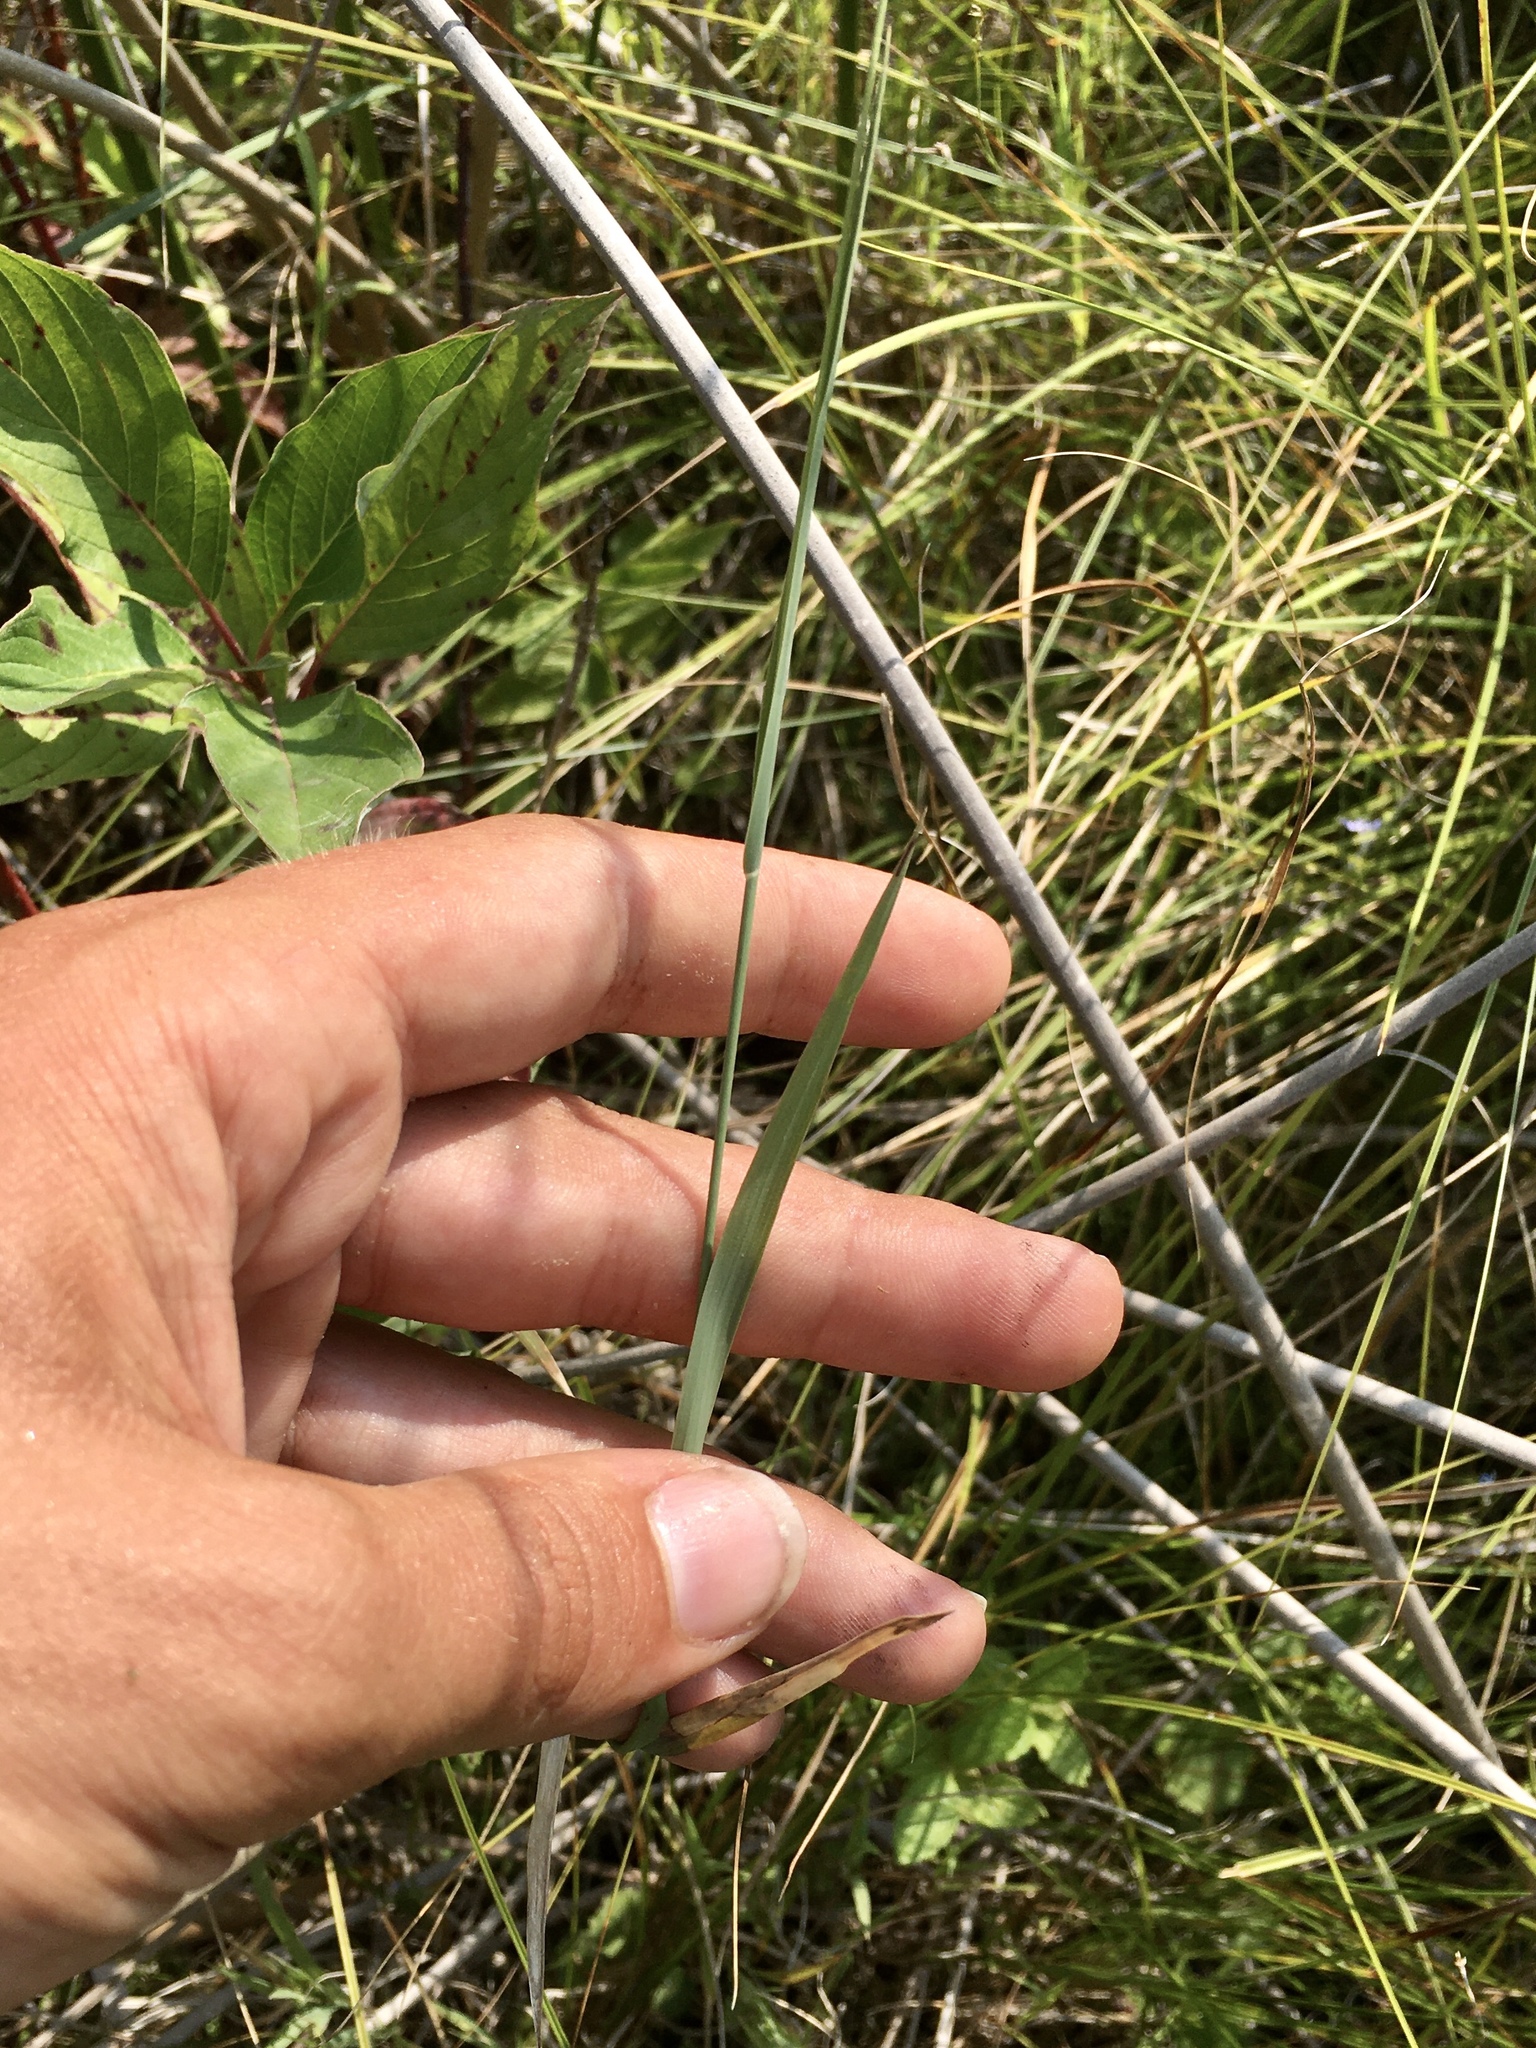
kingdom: Plantae
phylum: Tracheophyta
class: Liliopsida
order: Poales
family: Poaceae
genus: Muhlenbergia
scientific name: Muhlenbergia glomerata
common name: Bog muhly
